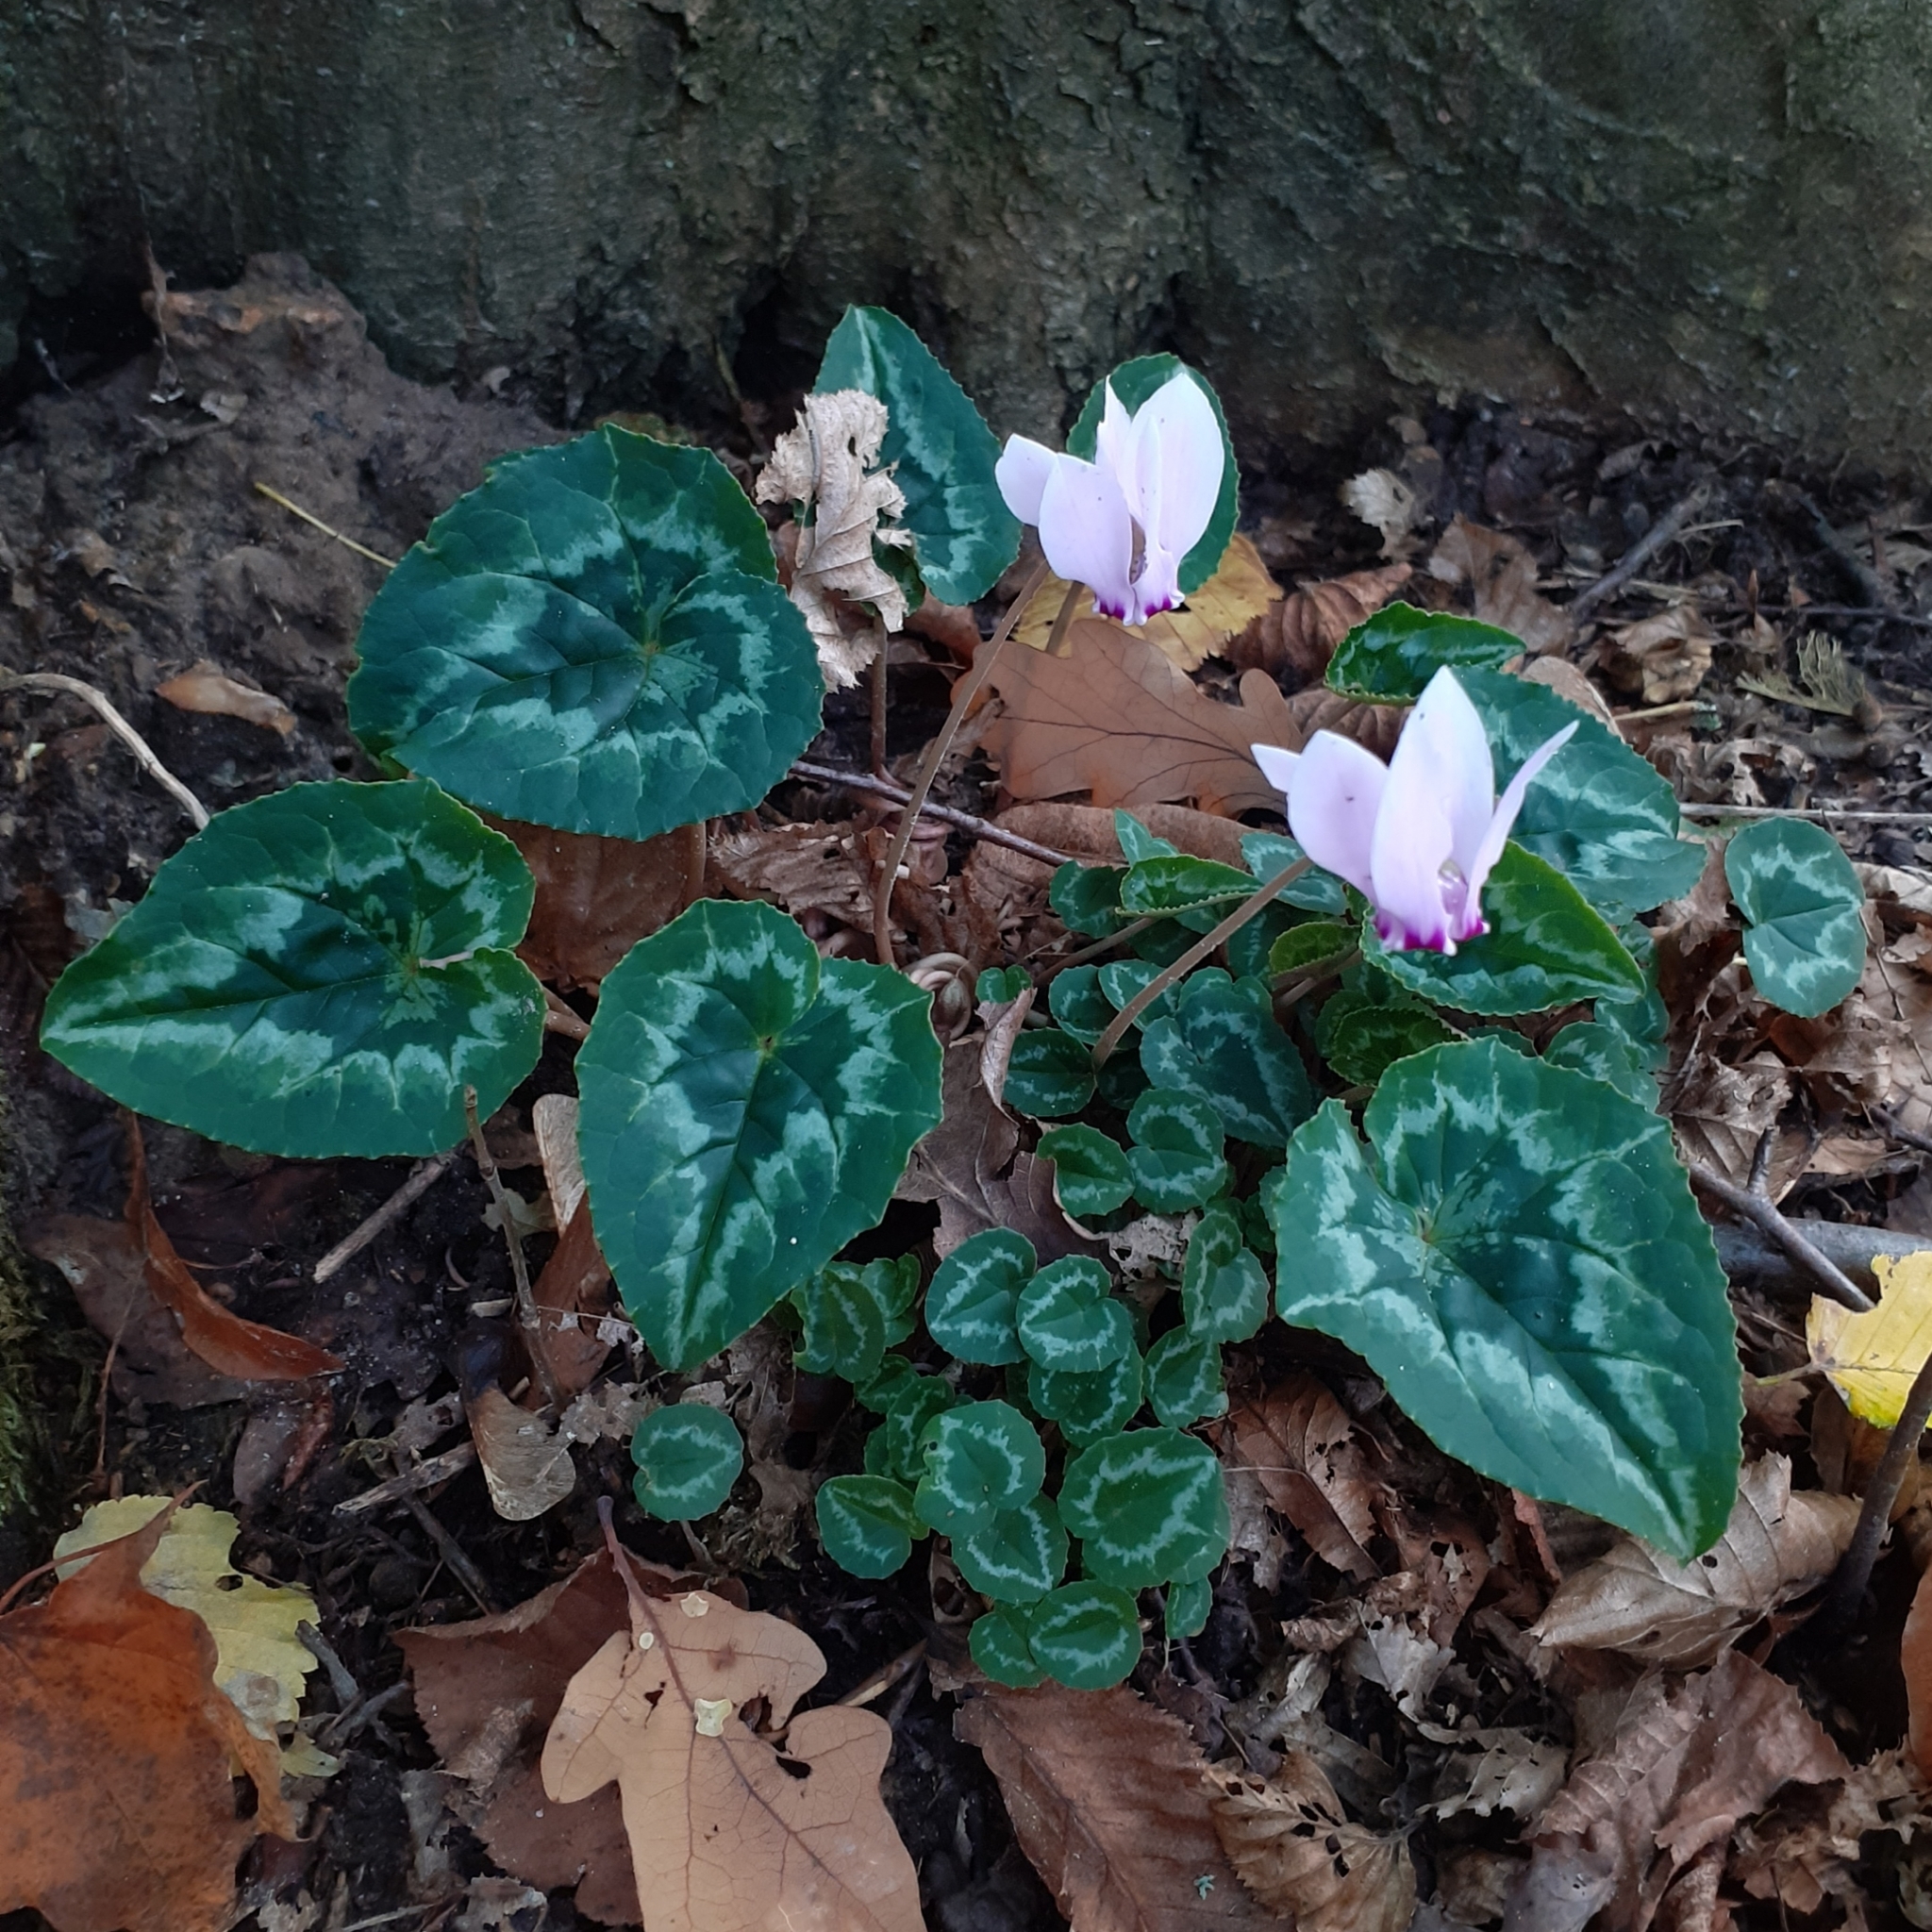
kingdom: Plantae
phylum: Tracheophyta
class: Magnoliopsida
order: Ericales
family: Primulaceae
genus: Cyclamen
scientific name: Cyclamen hederifolium
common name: Sowbread
